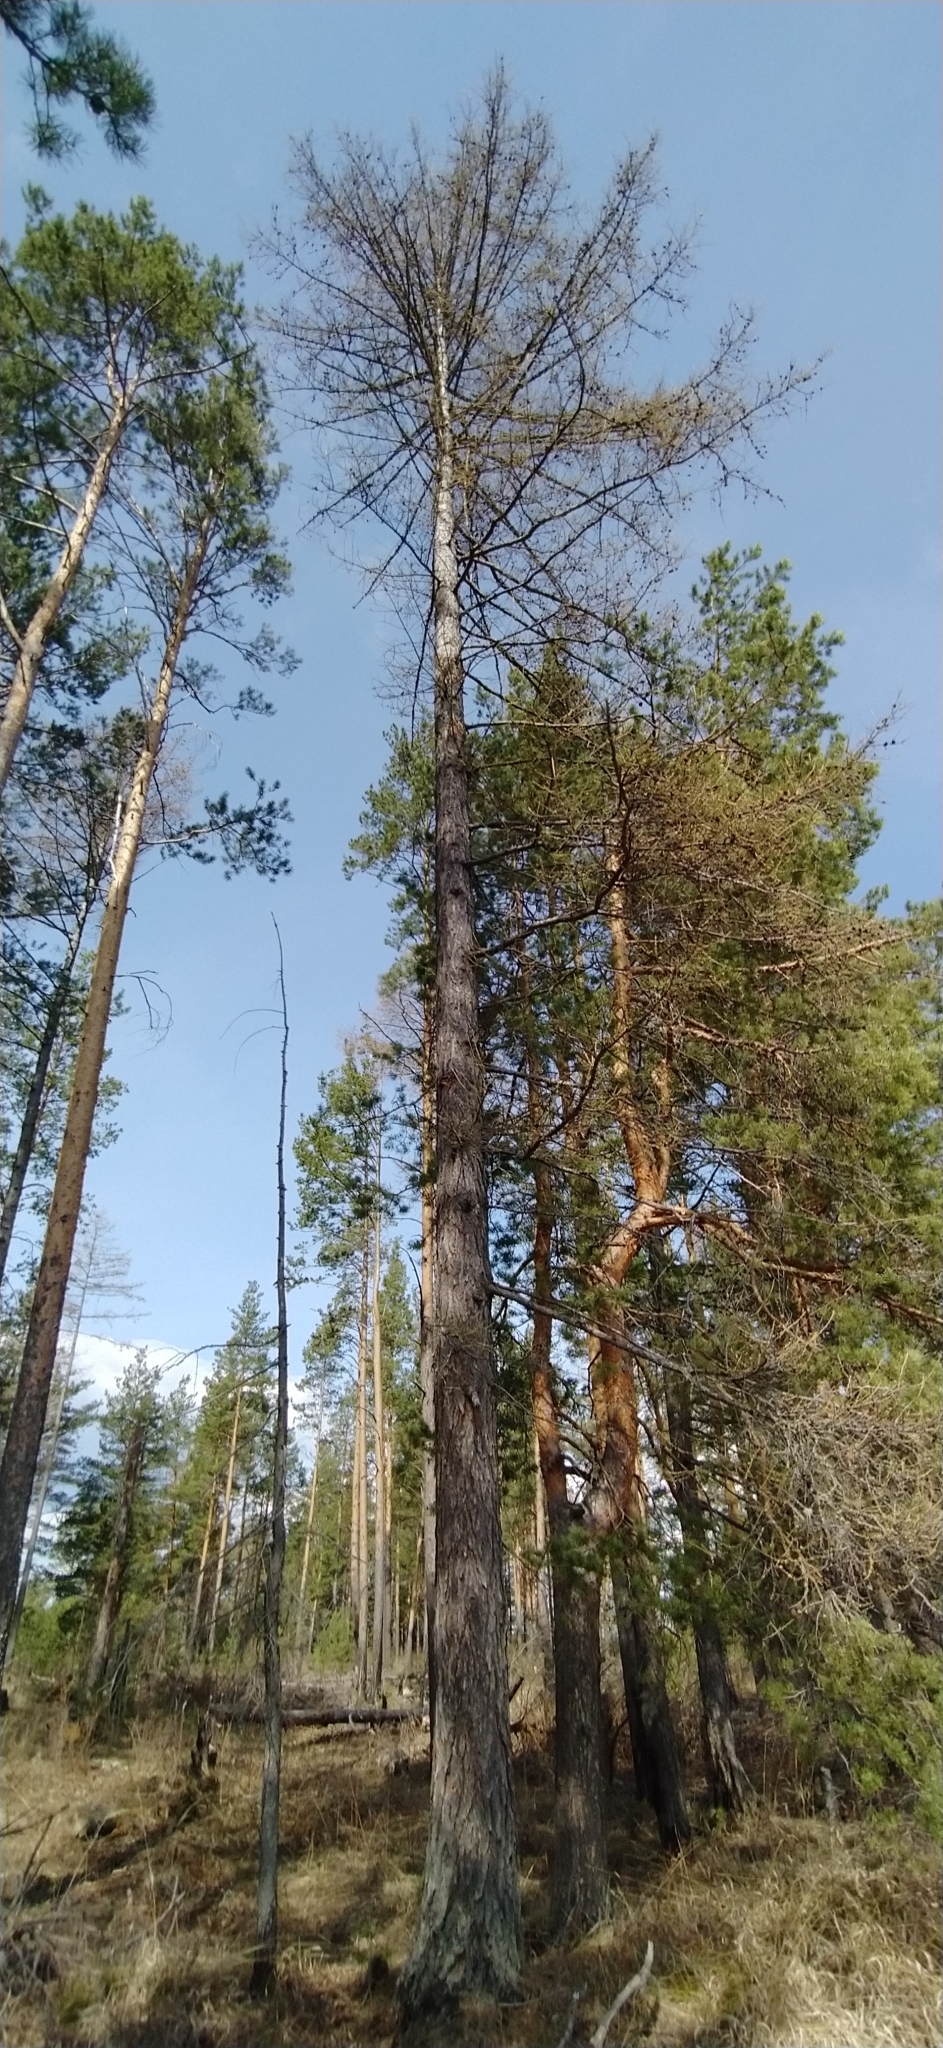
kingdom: Plantae
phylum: Tracheophyta
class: Pinopsida
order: Pinales
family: Pinaceae
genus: Larix
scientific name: Larix sibirica
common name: Siberian larch
